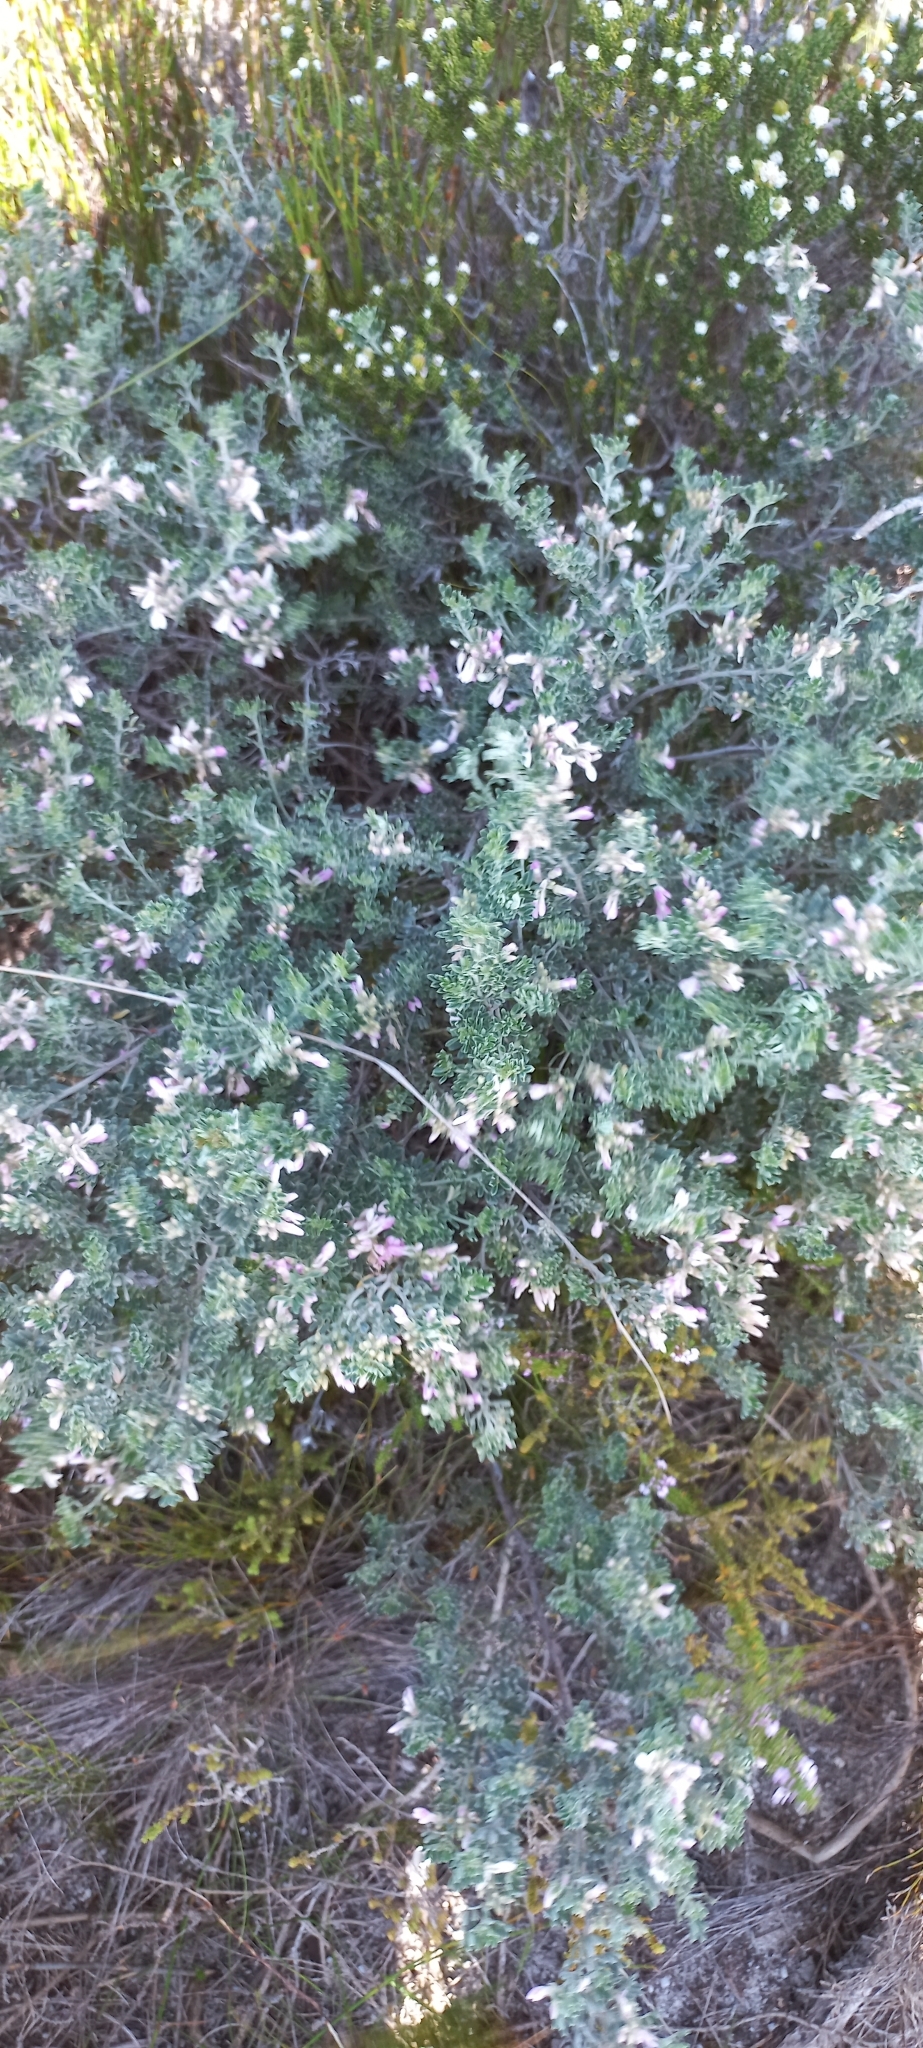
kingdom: Plantae
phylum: Tracheophyta
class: Magnoliopsida
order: Fabales
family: Fabaceae
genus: Indigofera
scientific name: Indigofera brachystachya
